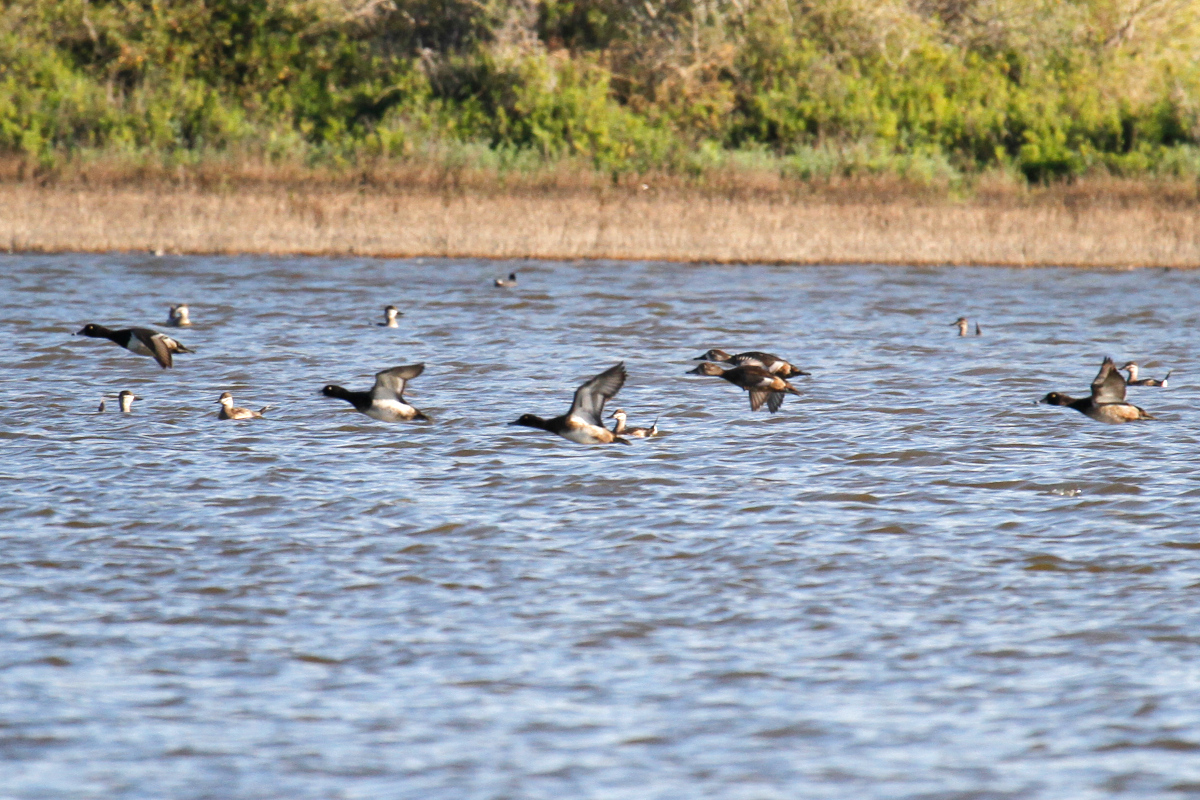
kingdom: Animalia
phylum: Chordata
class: Aves
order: Anseriformes
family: Anatidae
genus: Aythya
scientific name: Aythya affinis
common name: Lesser scaup
